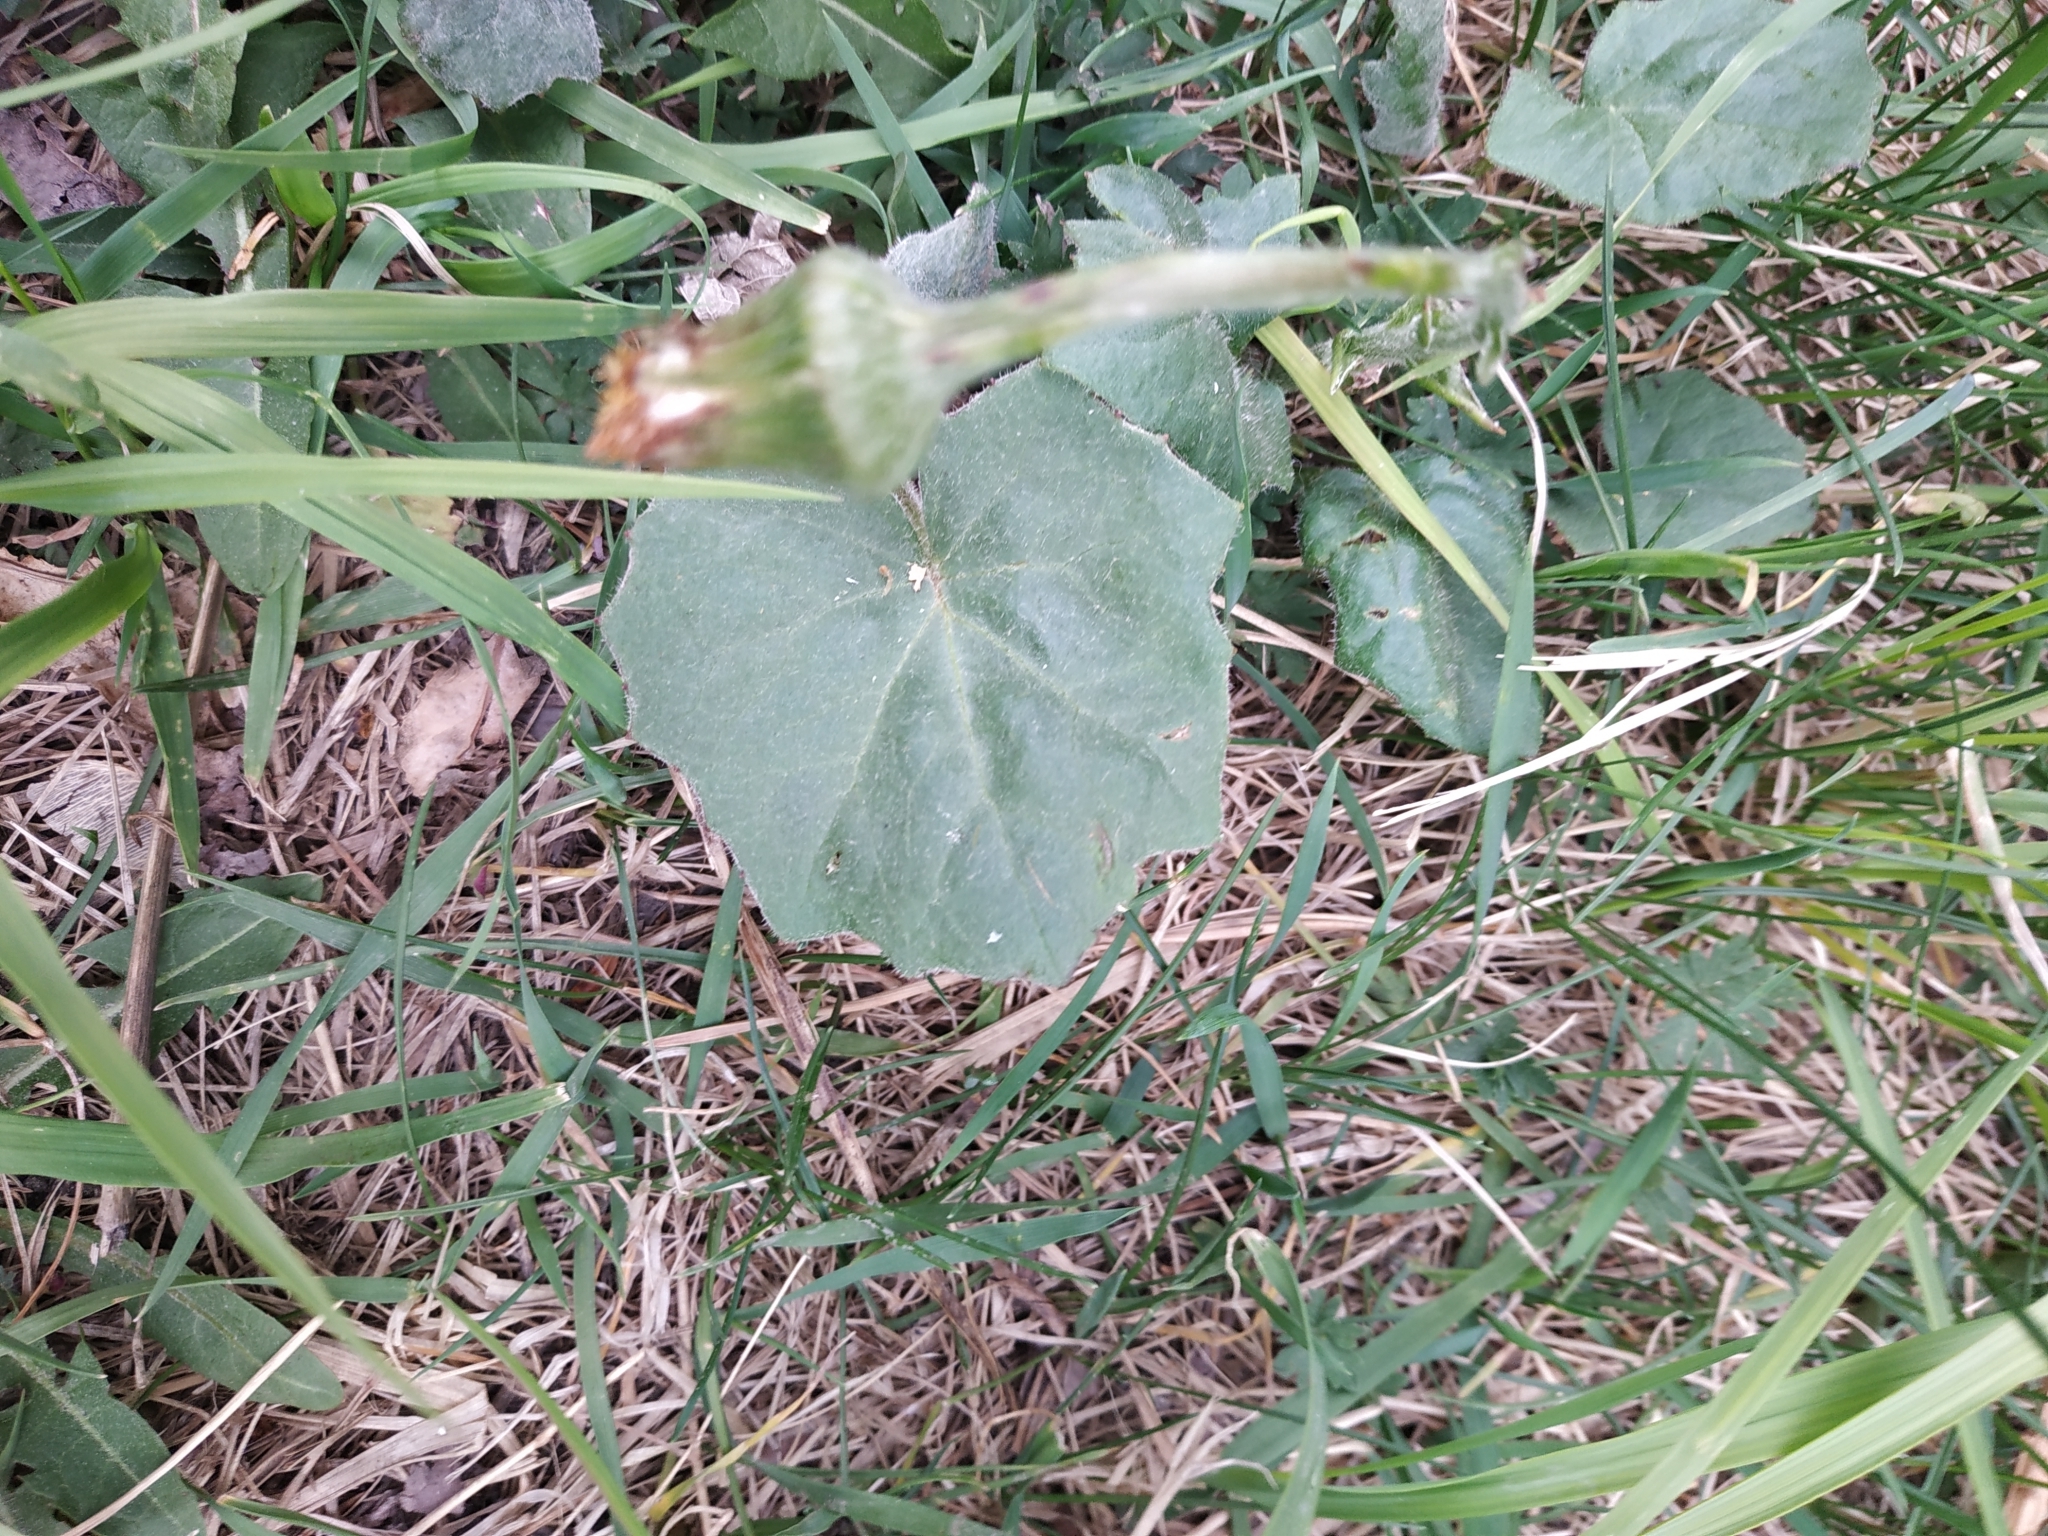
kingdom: Plantae
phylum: Tracheophyta
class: Magnoliopsida
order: Asterales
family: Asteraceae
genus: Tussilago
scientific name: Tussilago farfara
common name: Coltsfoot
